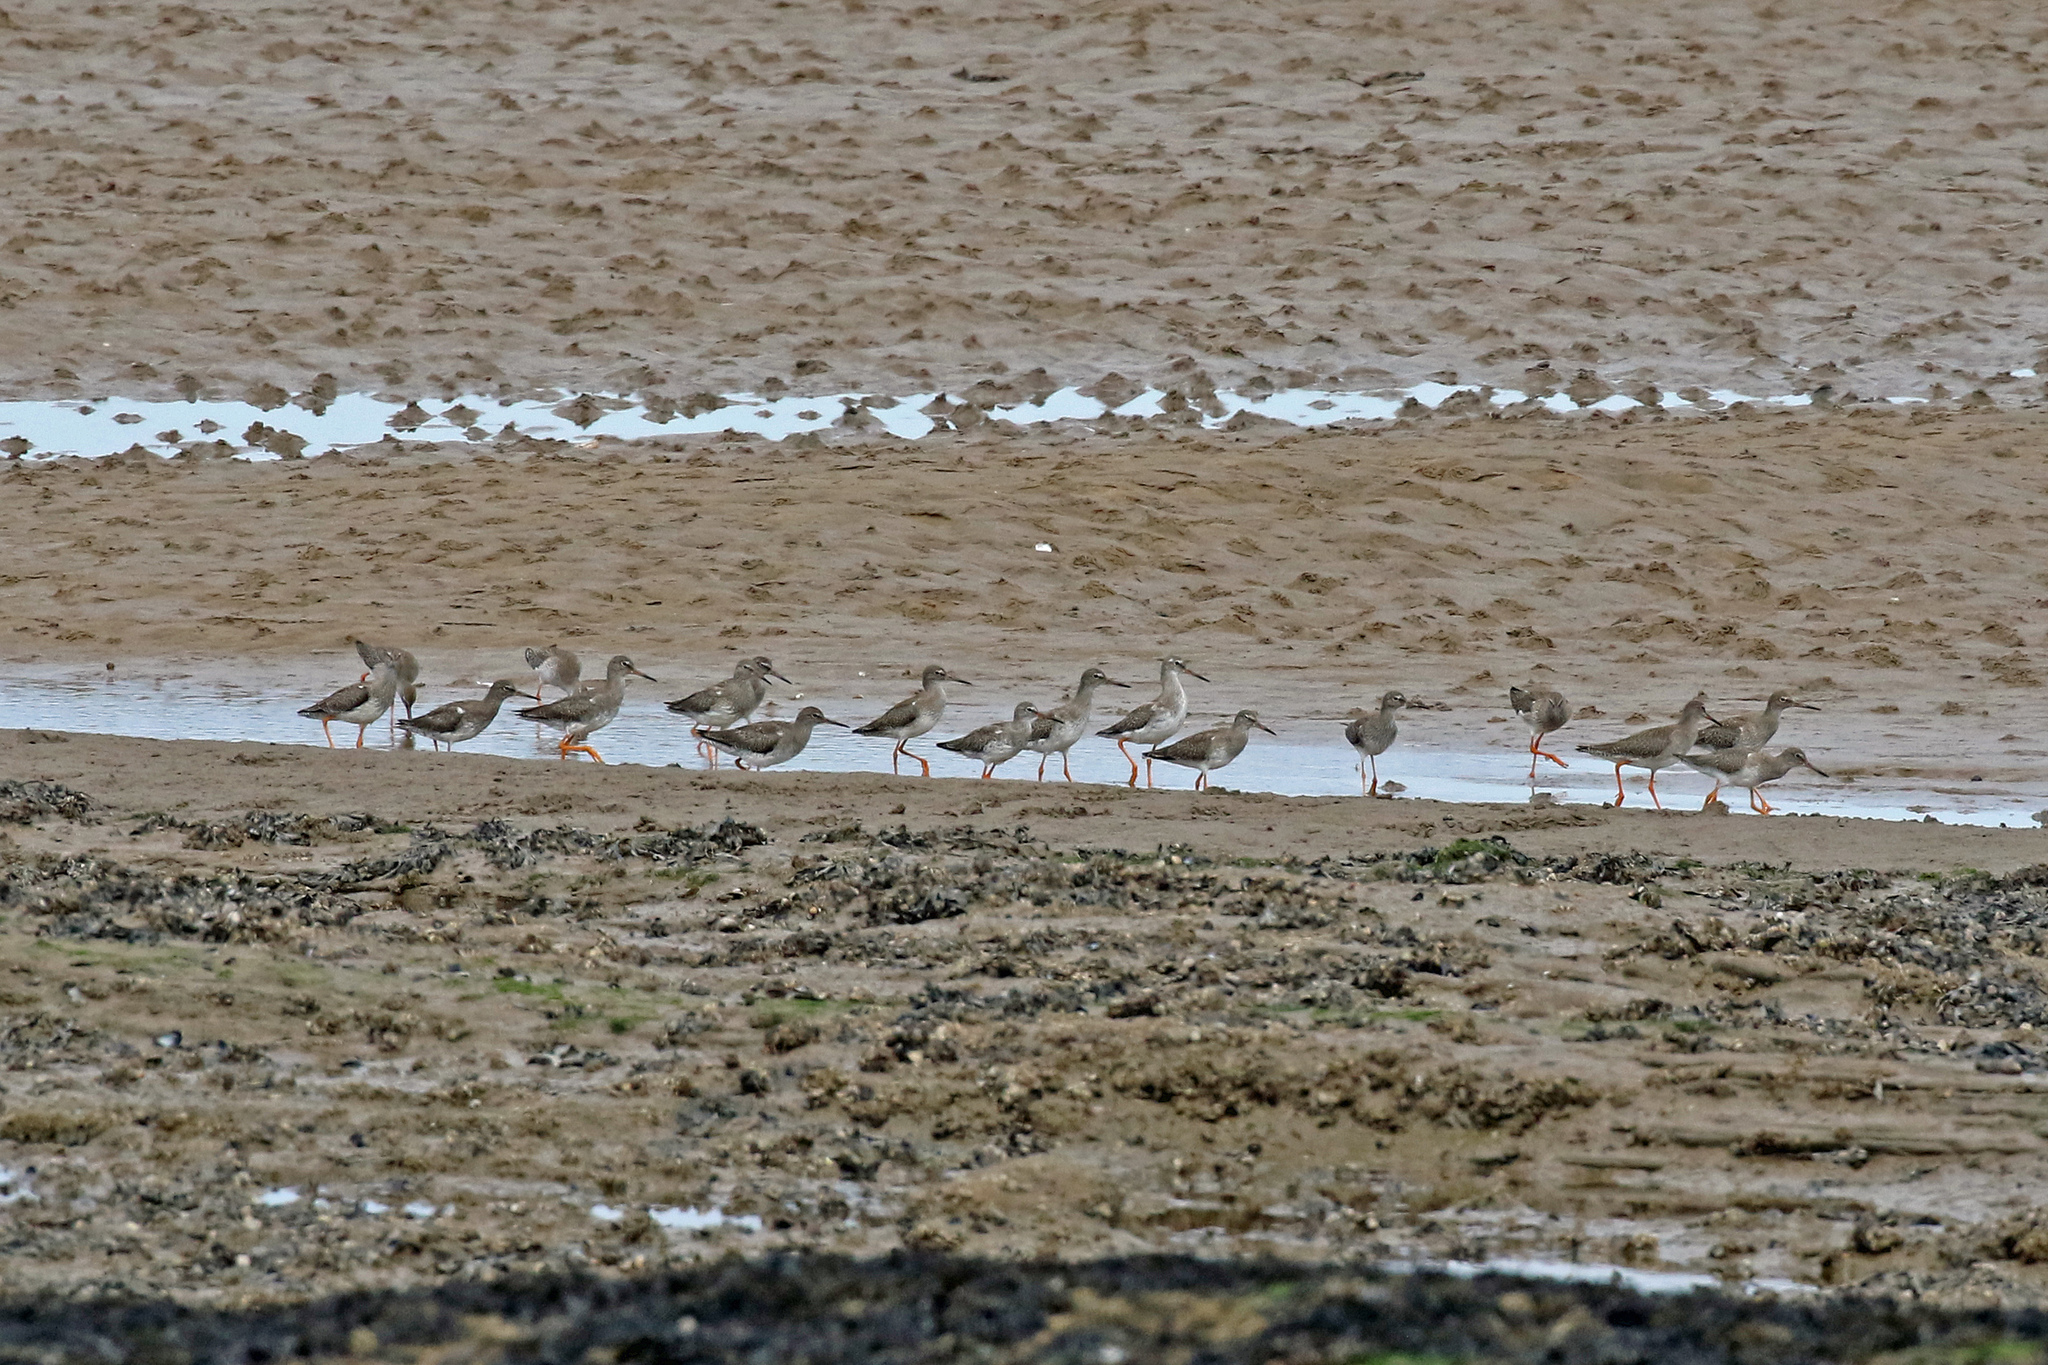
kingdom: Animalia
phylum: Chordata
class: Aves
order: Charadriiformes
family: Scolopacidae
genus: Tringa
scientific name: Tringa totanus
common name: Common redshank
